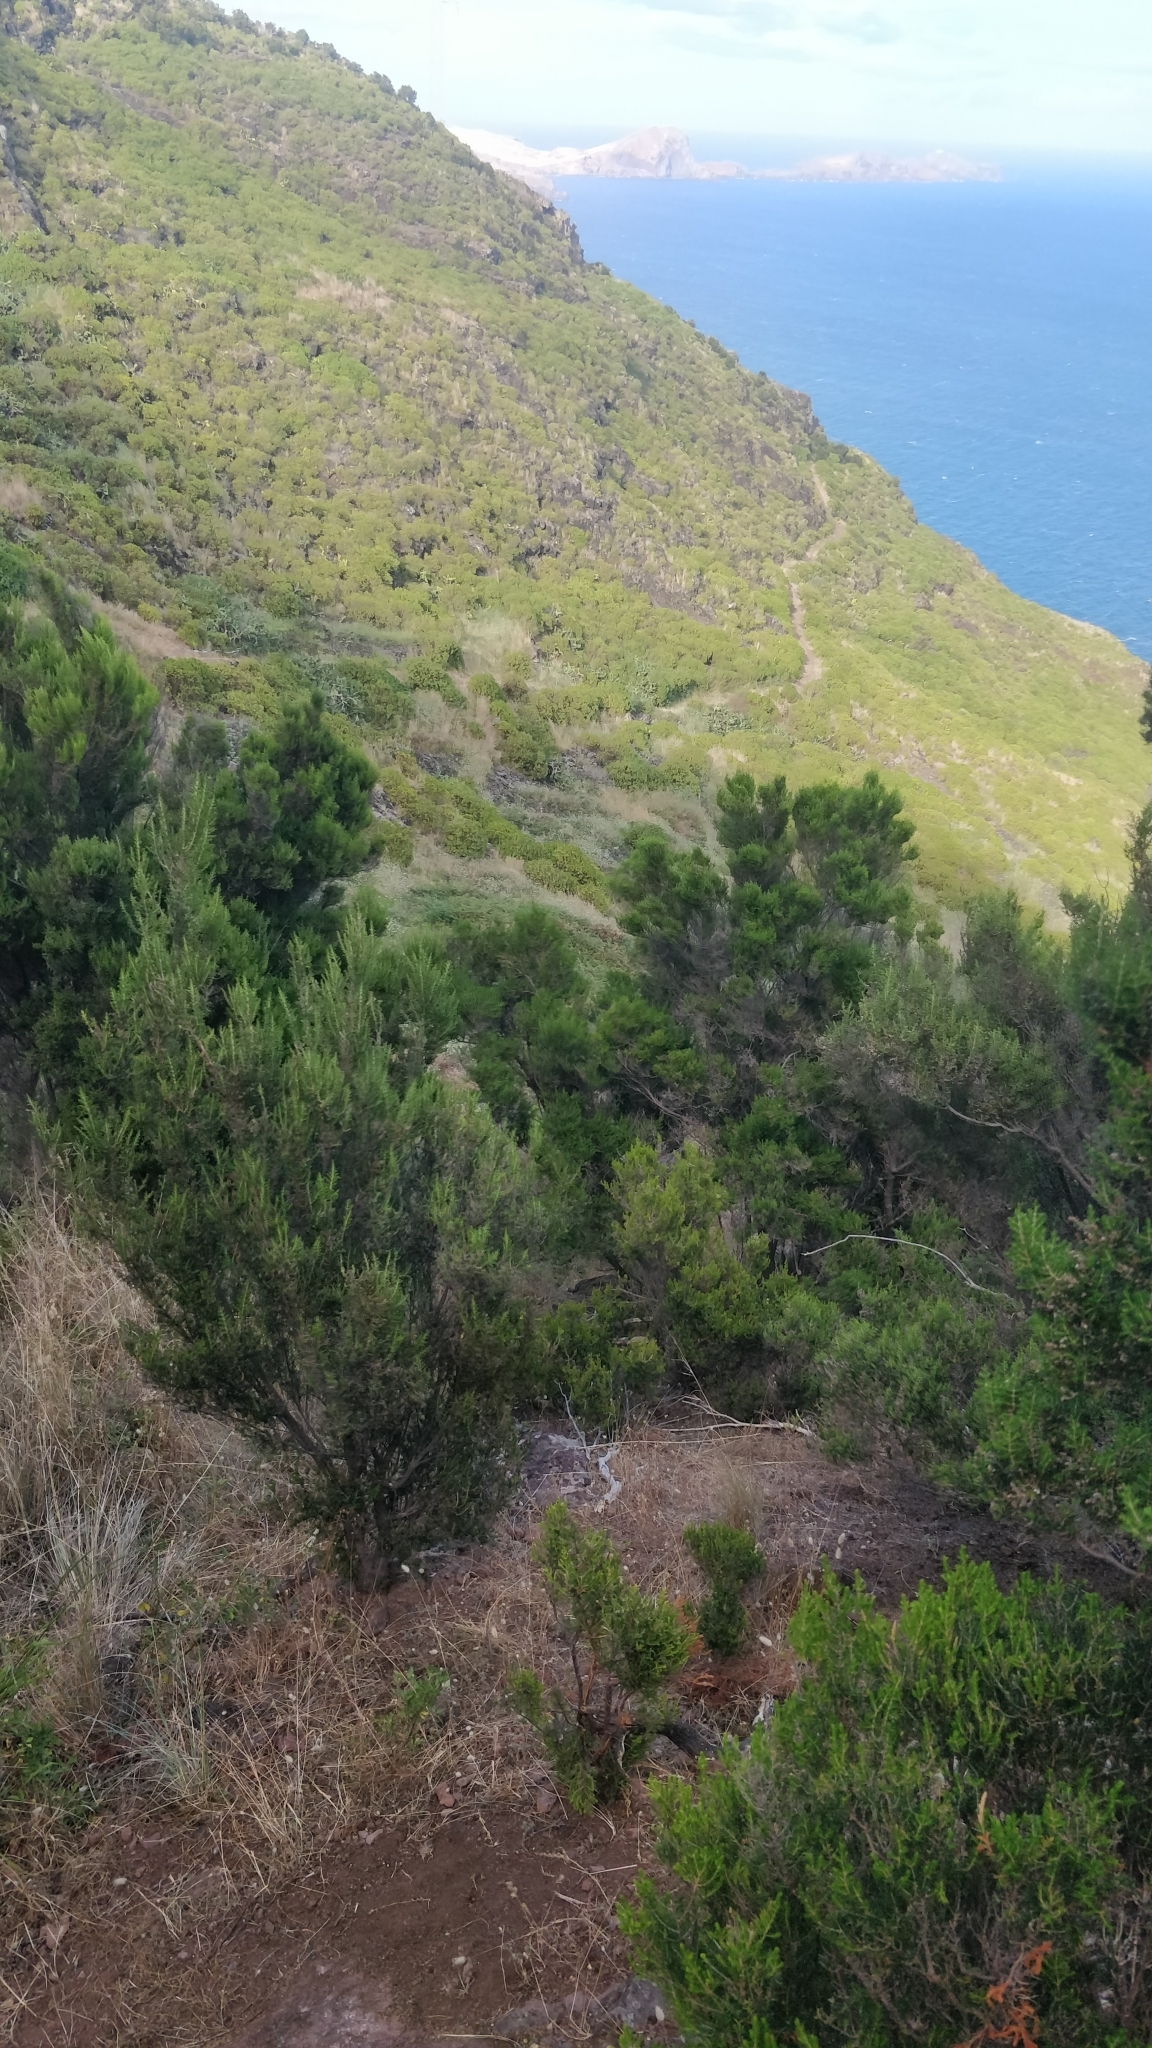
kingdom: Plantae
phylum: Tracheophyta
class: Magnoliopsida
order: Ericales
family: Ericaceae
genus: Erica
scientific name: Erica canariensis
